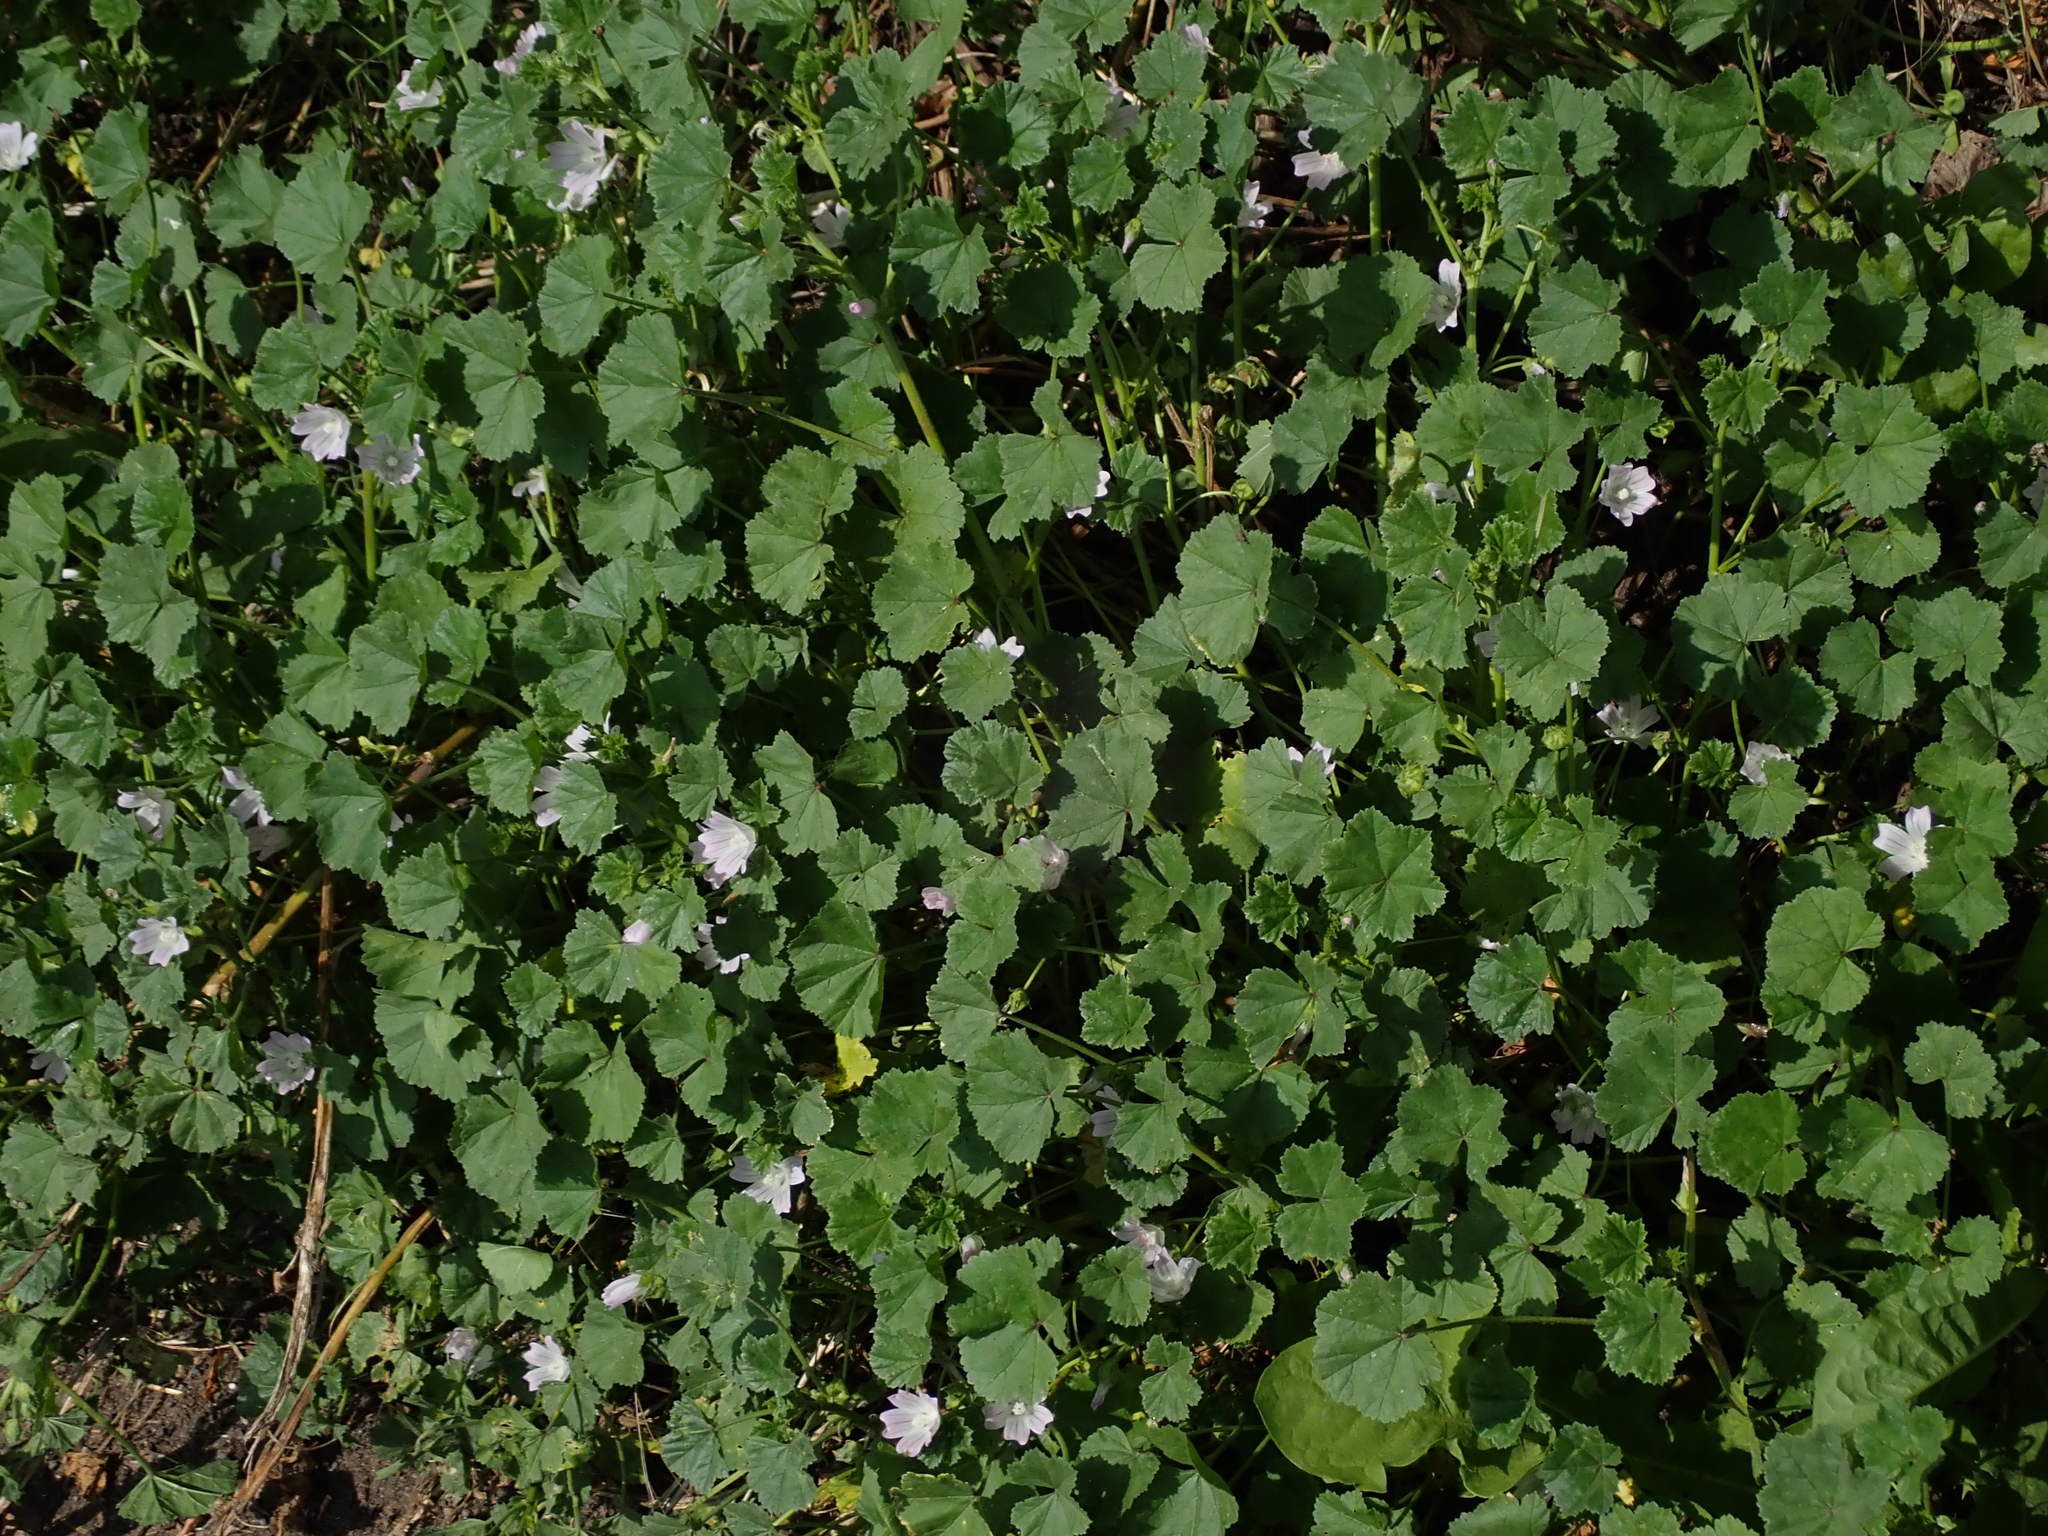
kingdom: Plantae
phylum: Tracheophyta
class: Magnoliopsida
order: Malvales
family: Malvaceae
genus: Malva
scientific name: Malva neglecta
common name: Common mallow
